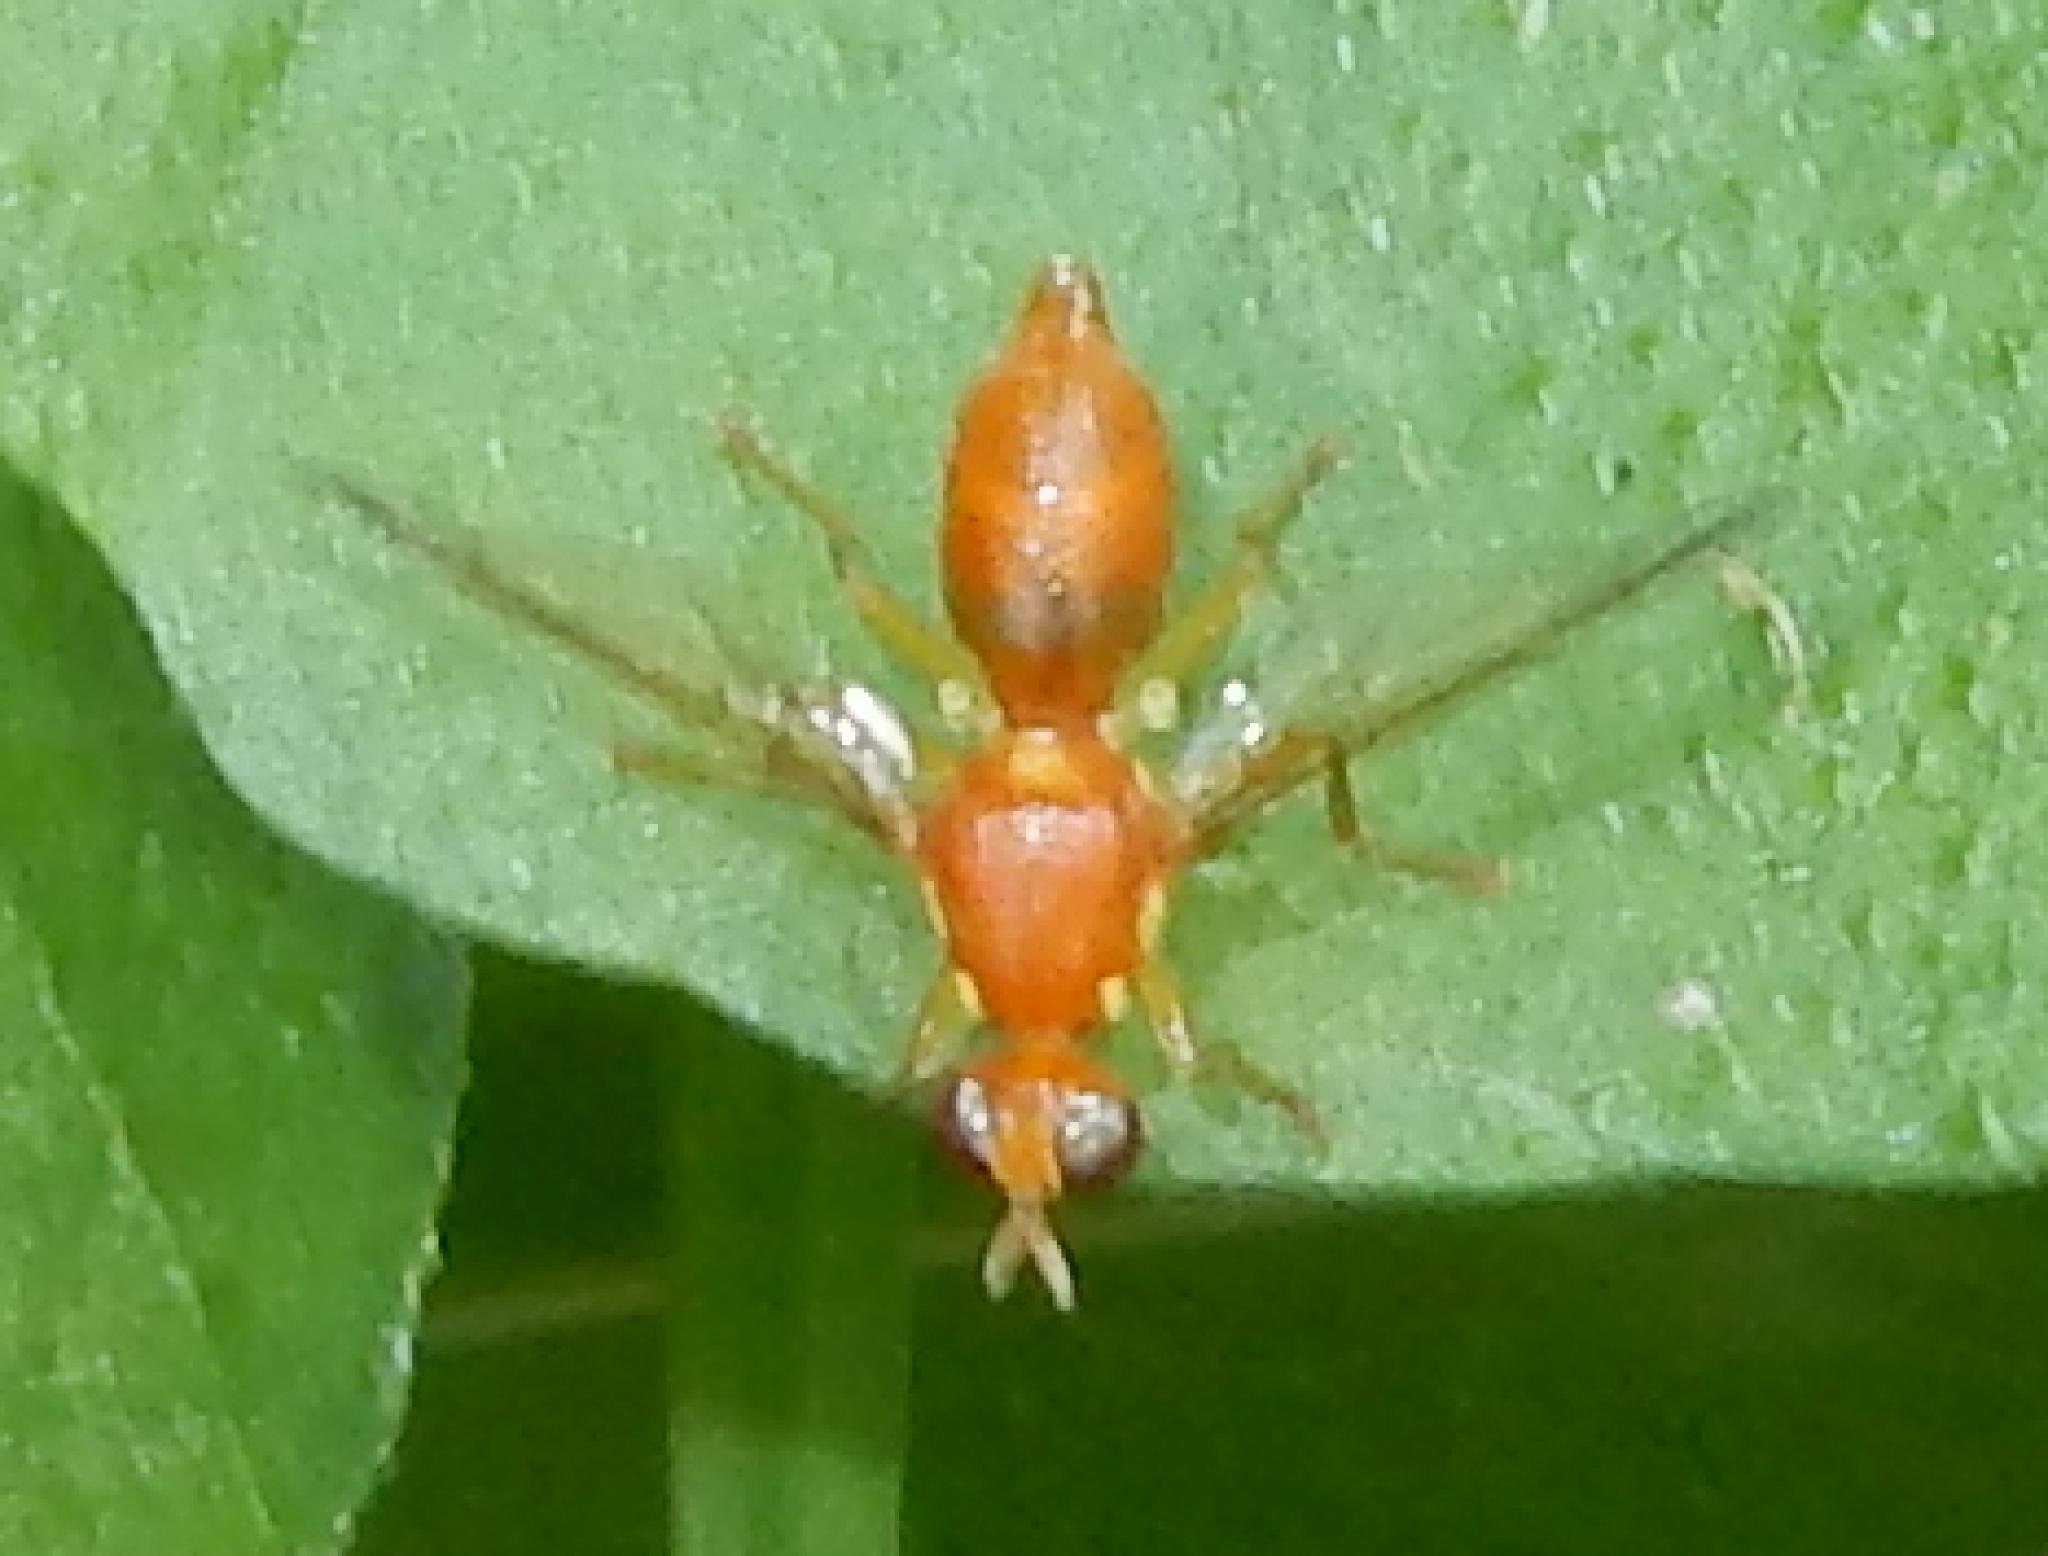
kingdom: Animalia
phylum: Arthropoda
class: Insecta
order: Diptera
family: Tephritidae
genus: Sosiopsila
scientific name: Sosiopsila rotunda
